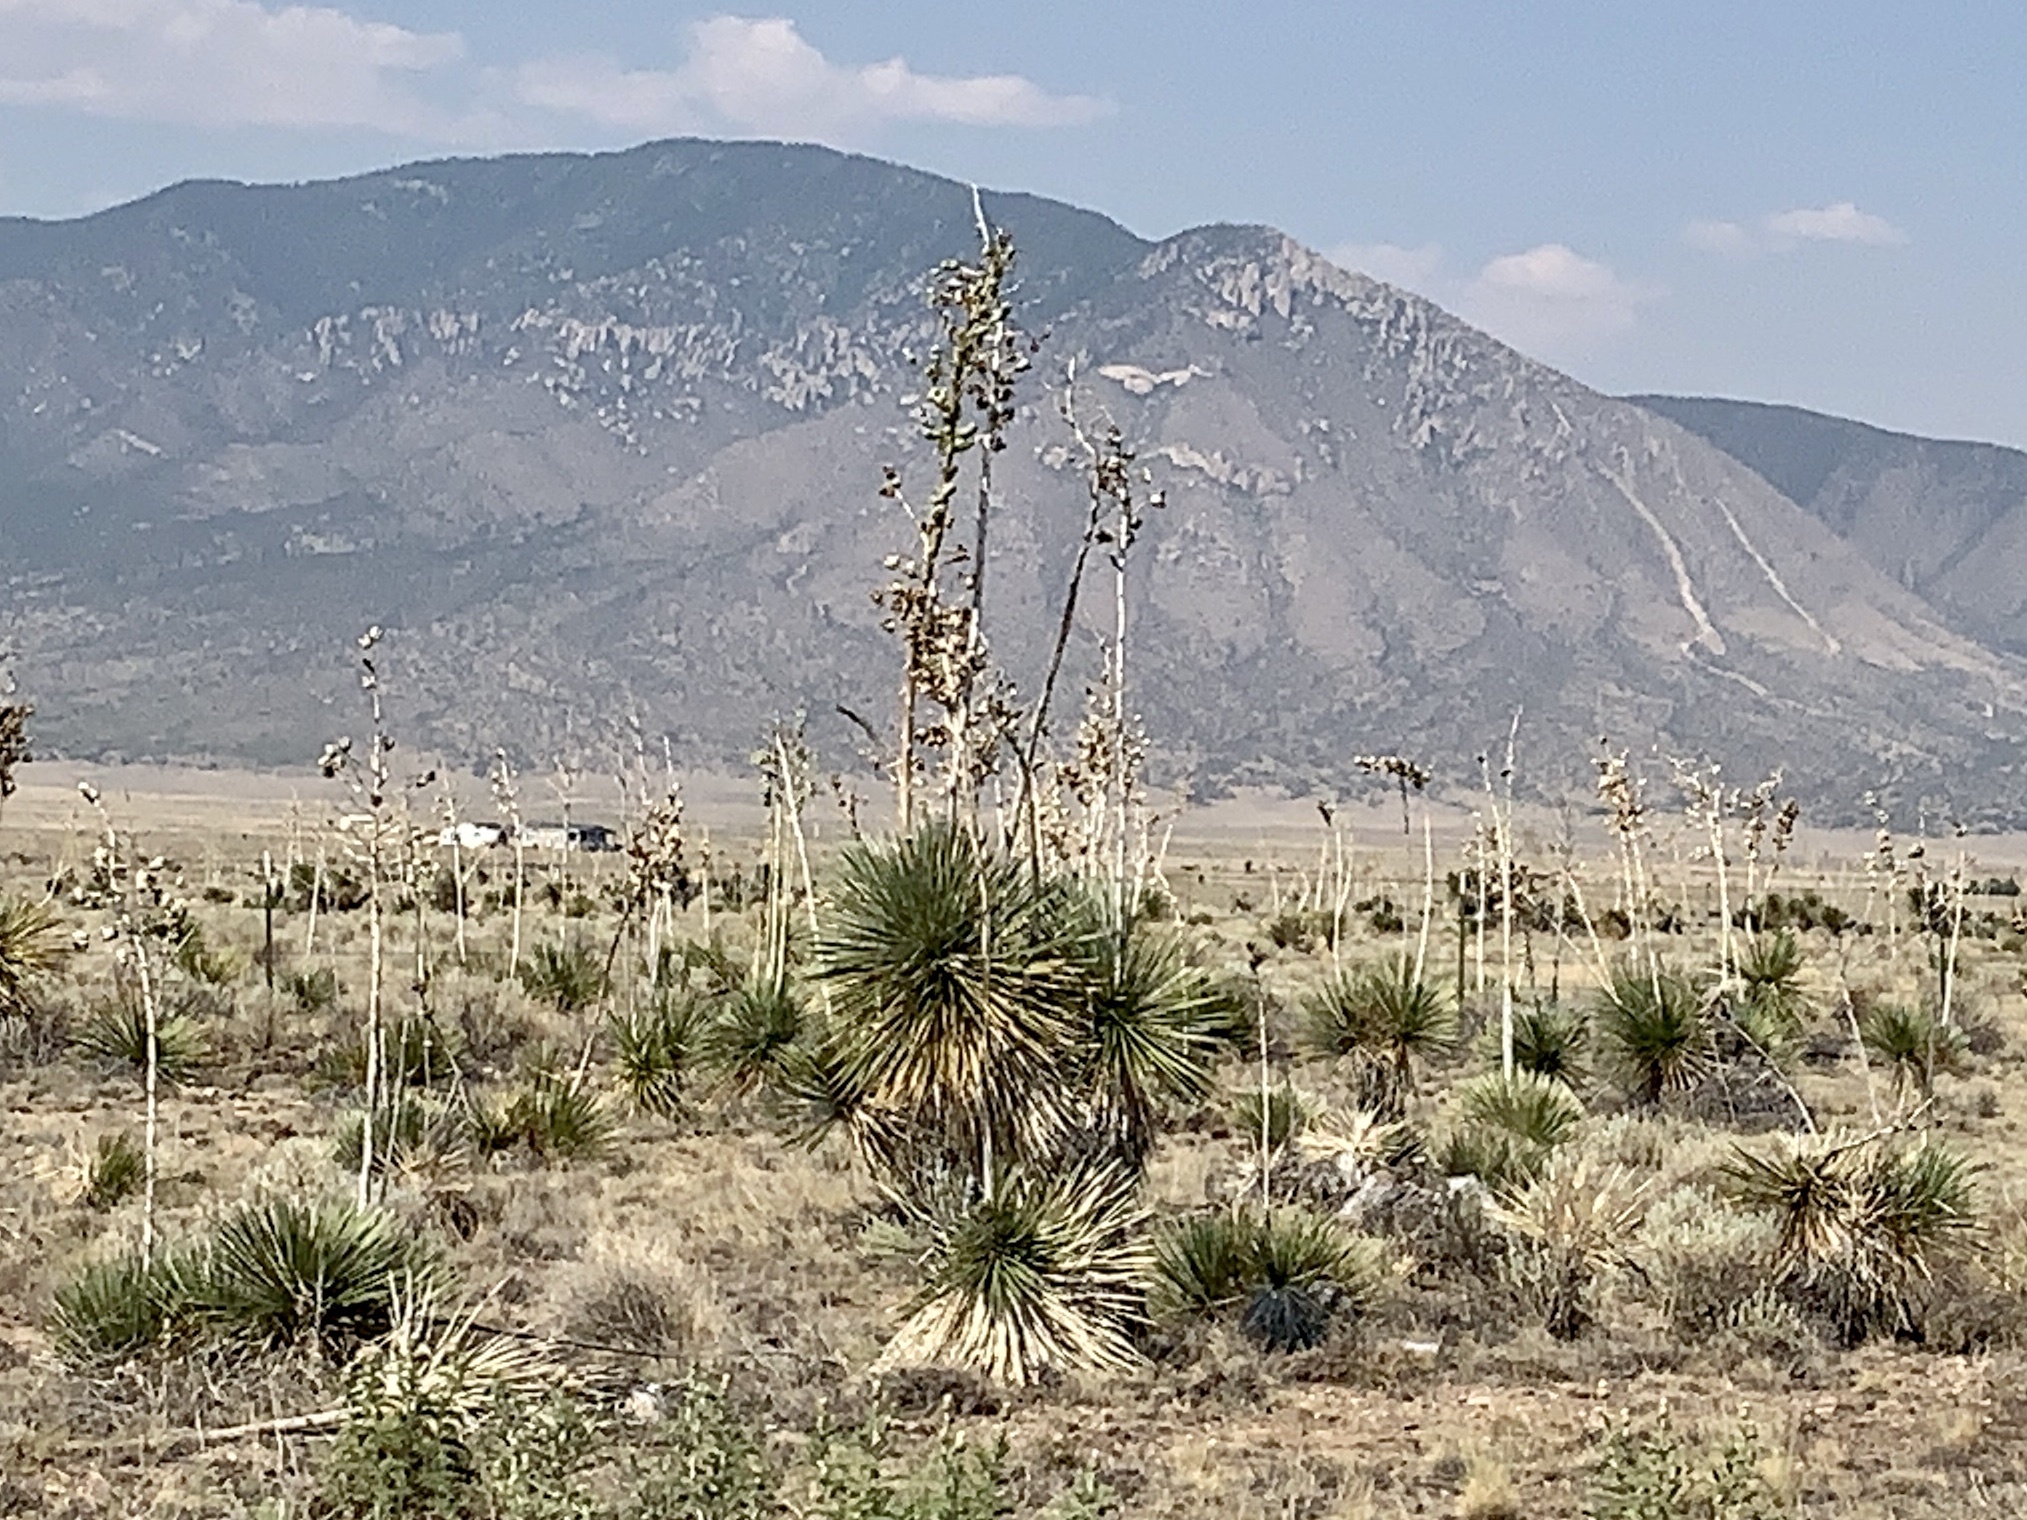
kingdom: Plantae
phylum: Tracheophyta
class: Liliopsida
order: Asparagales
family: Asparagaceae
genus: Yucca
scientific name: Yucca elata
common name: Palmella
